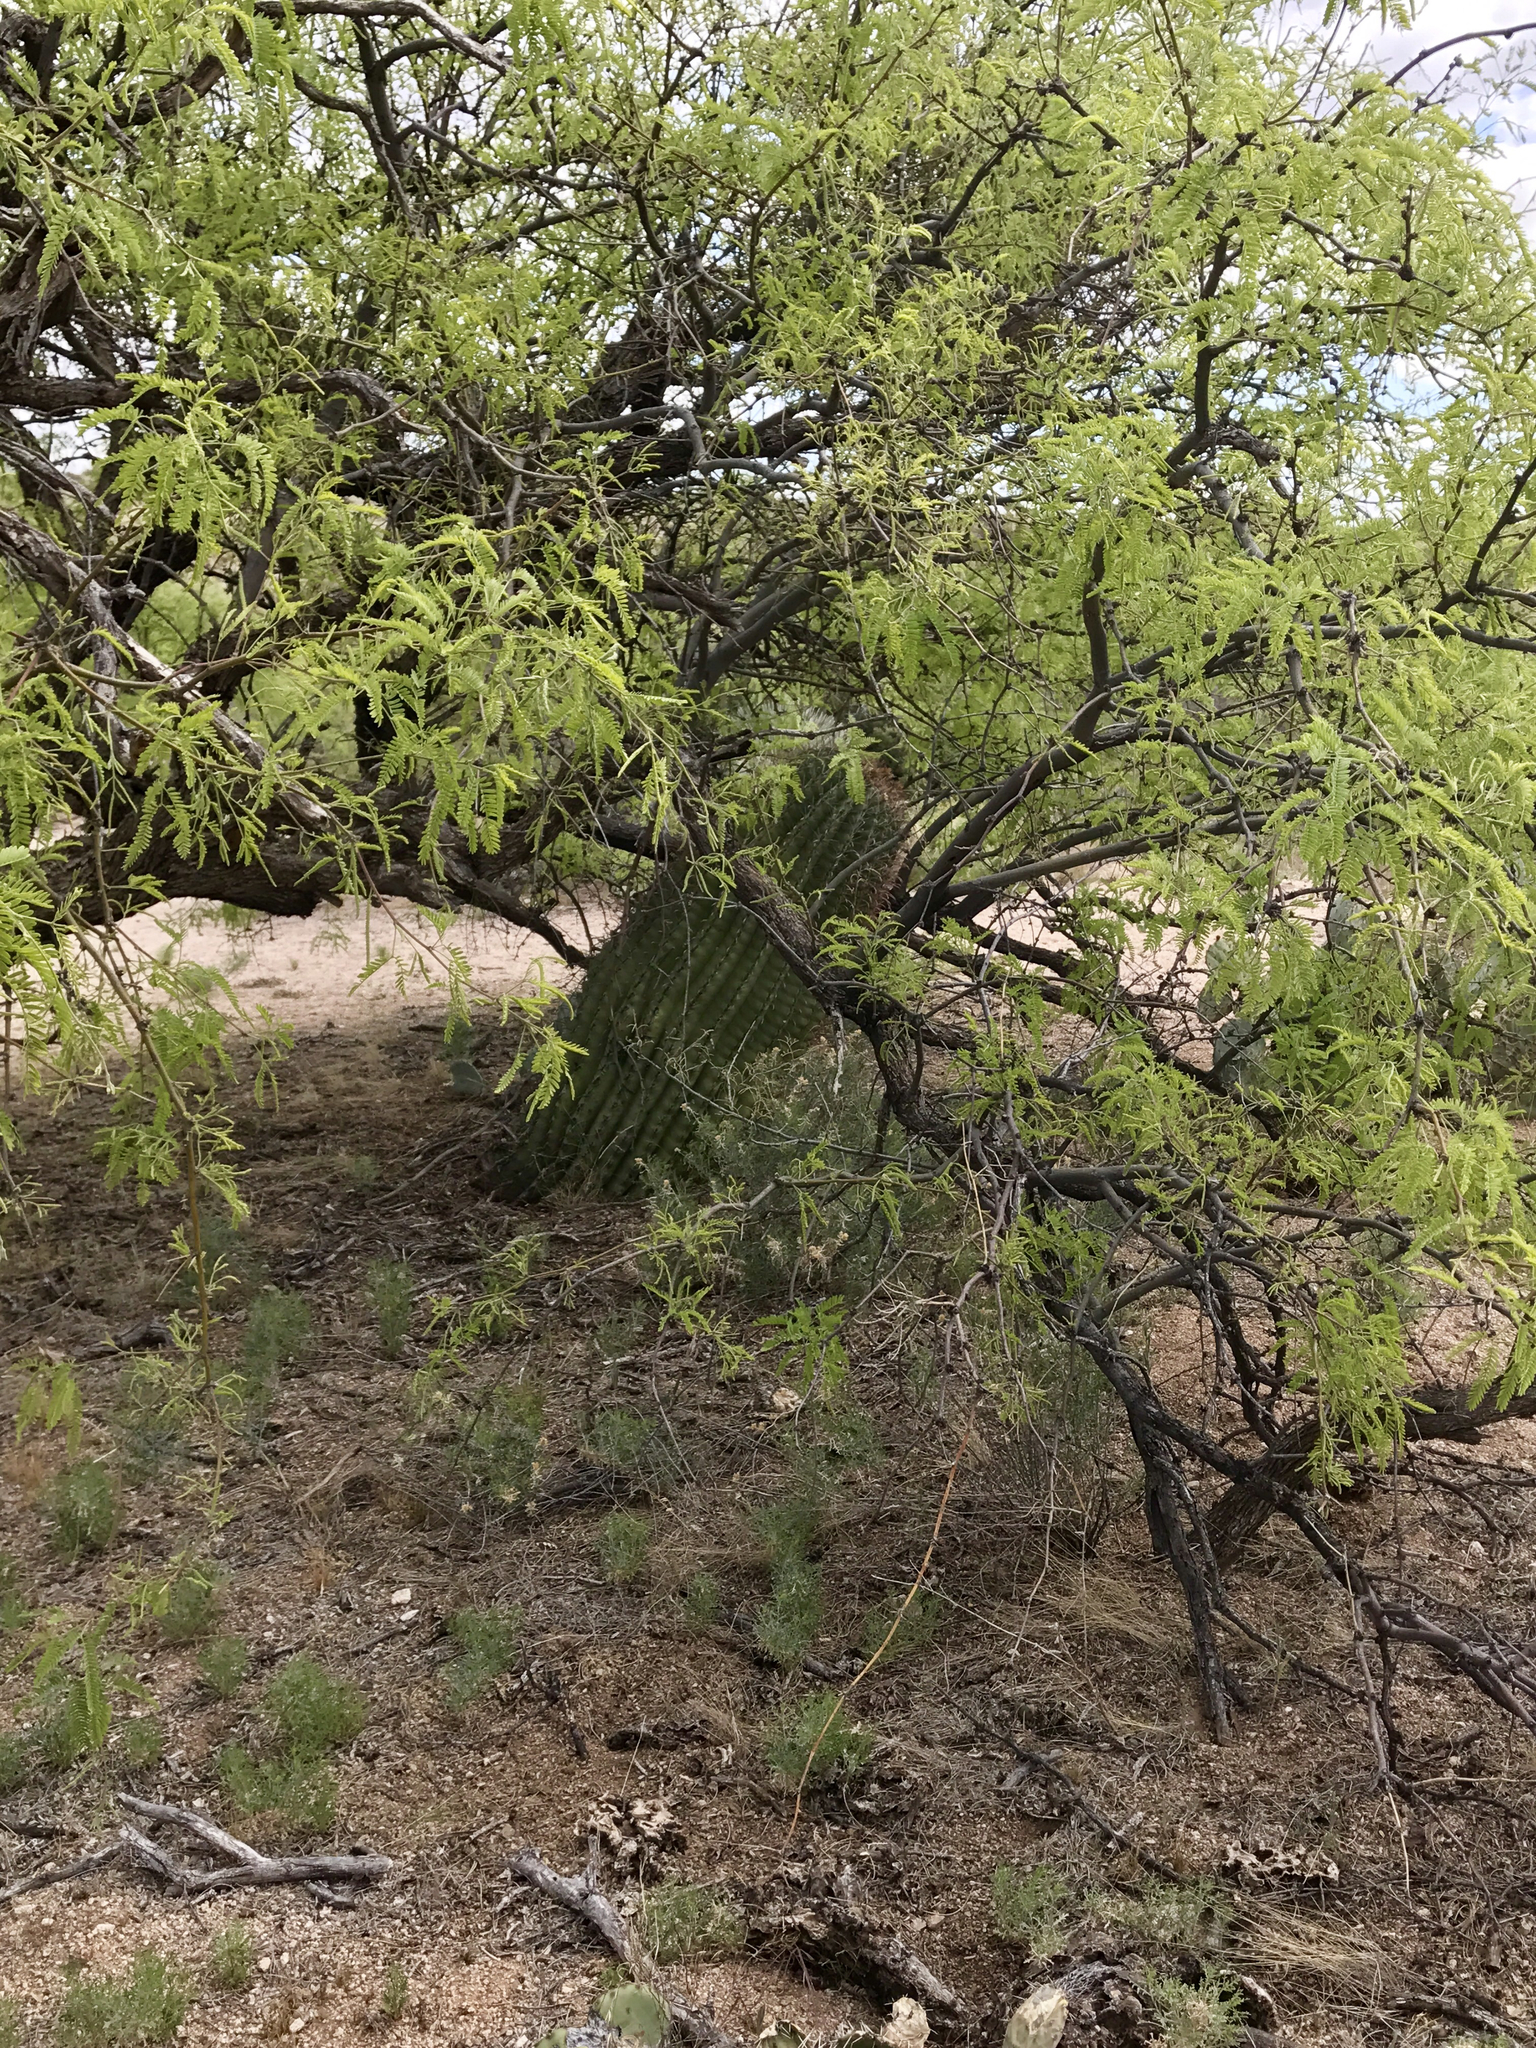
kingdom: Plantae
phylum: Tracheophyta
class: Magnoliopsida
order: Caryophyllales
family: Cactaceae
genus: Ferocactus
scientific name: Ferocactus wislizeni
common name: Candy barrel cactus
